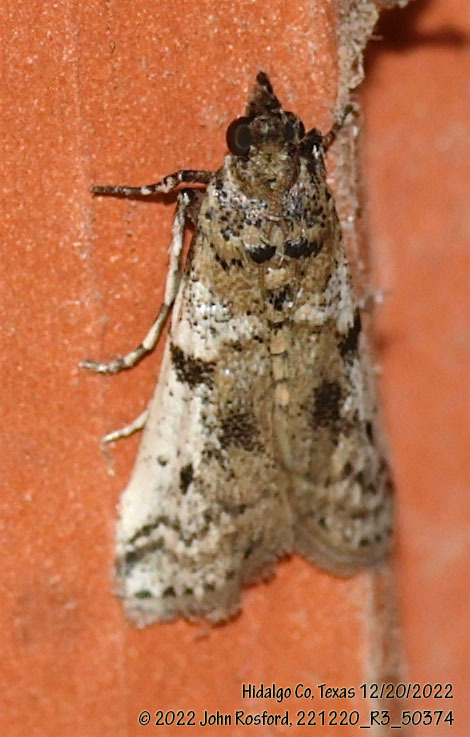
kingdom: Animalia
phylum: Arthropoda
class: Insecta
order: Lepidoptera
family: Pyralidae
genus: Laetilia
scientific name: Laetilia coccidivora
